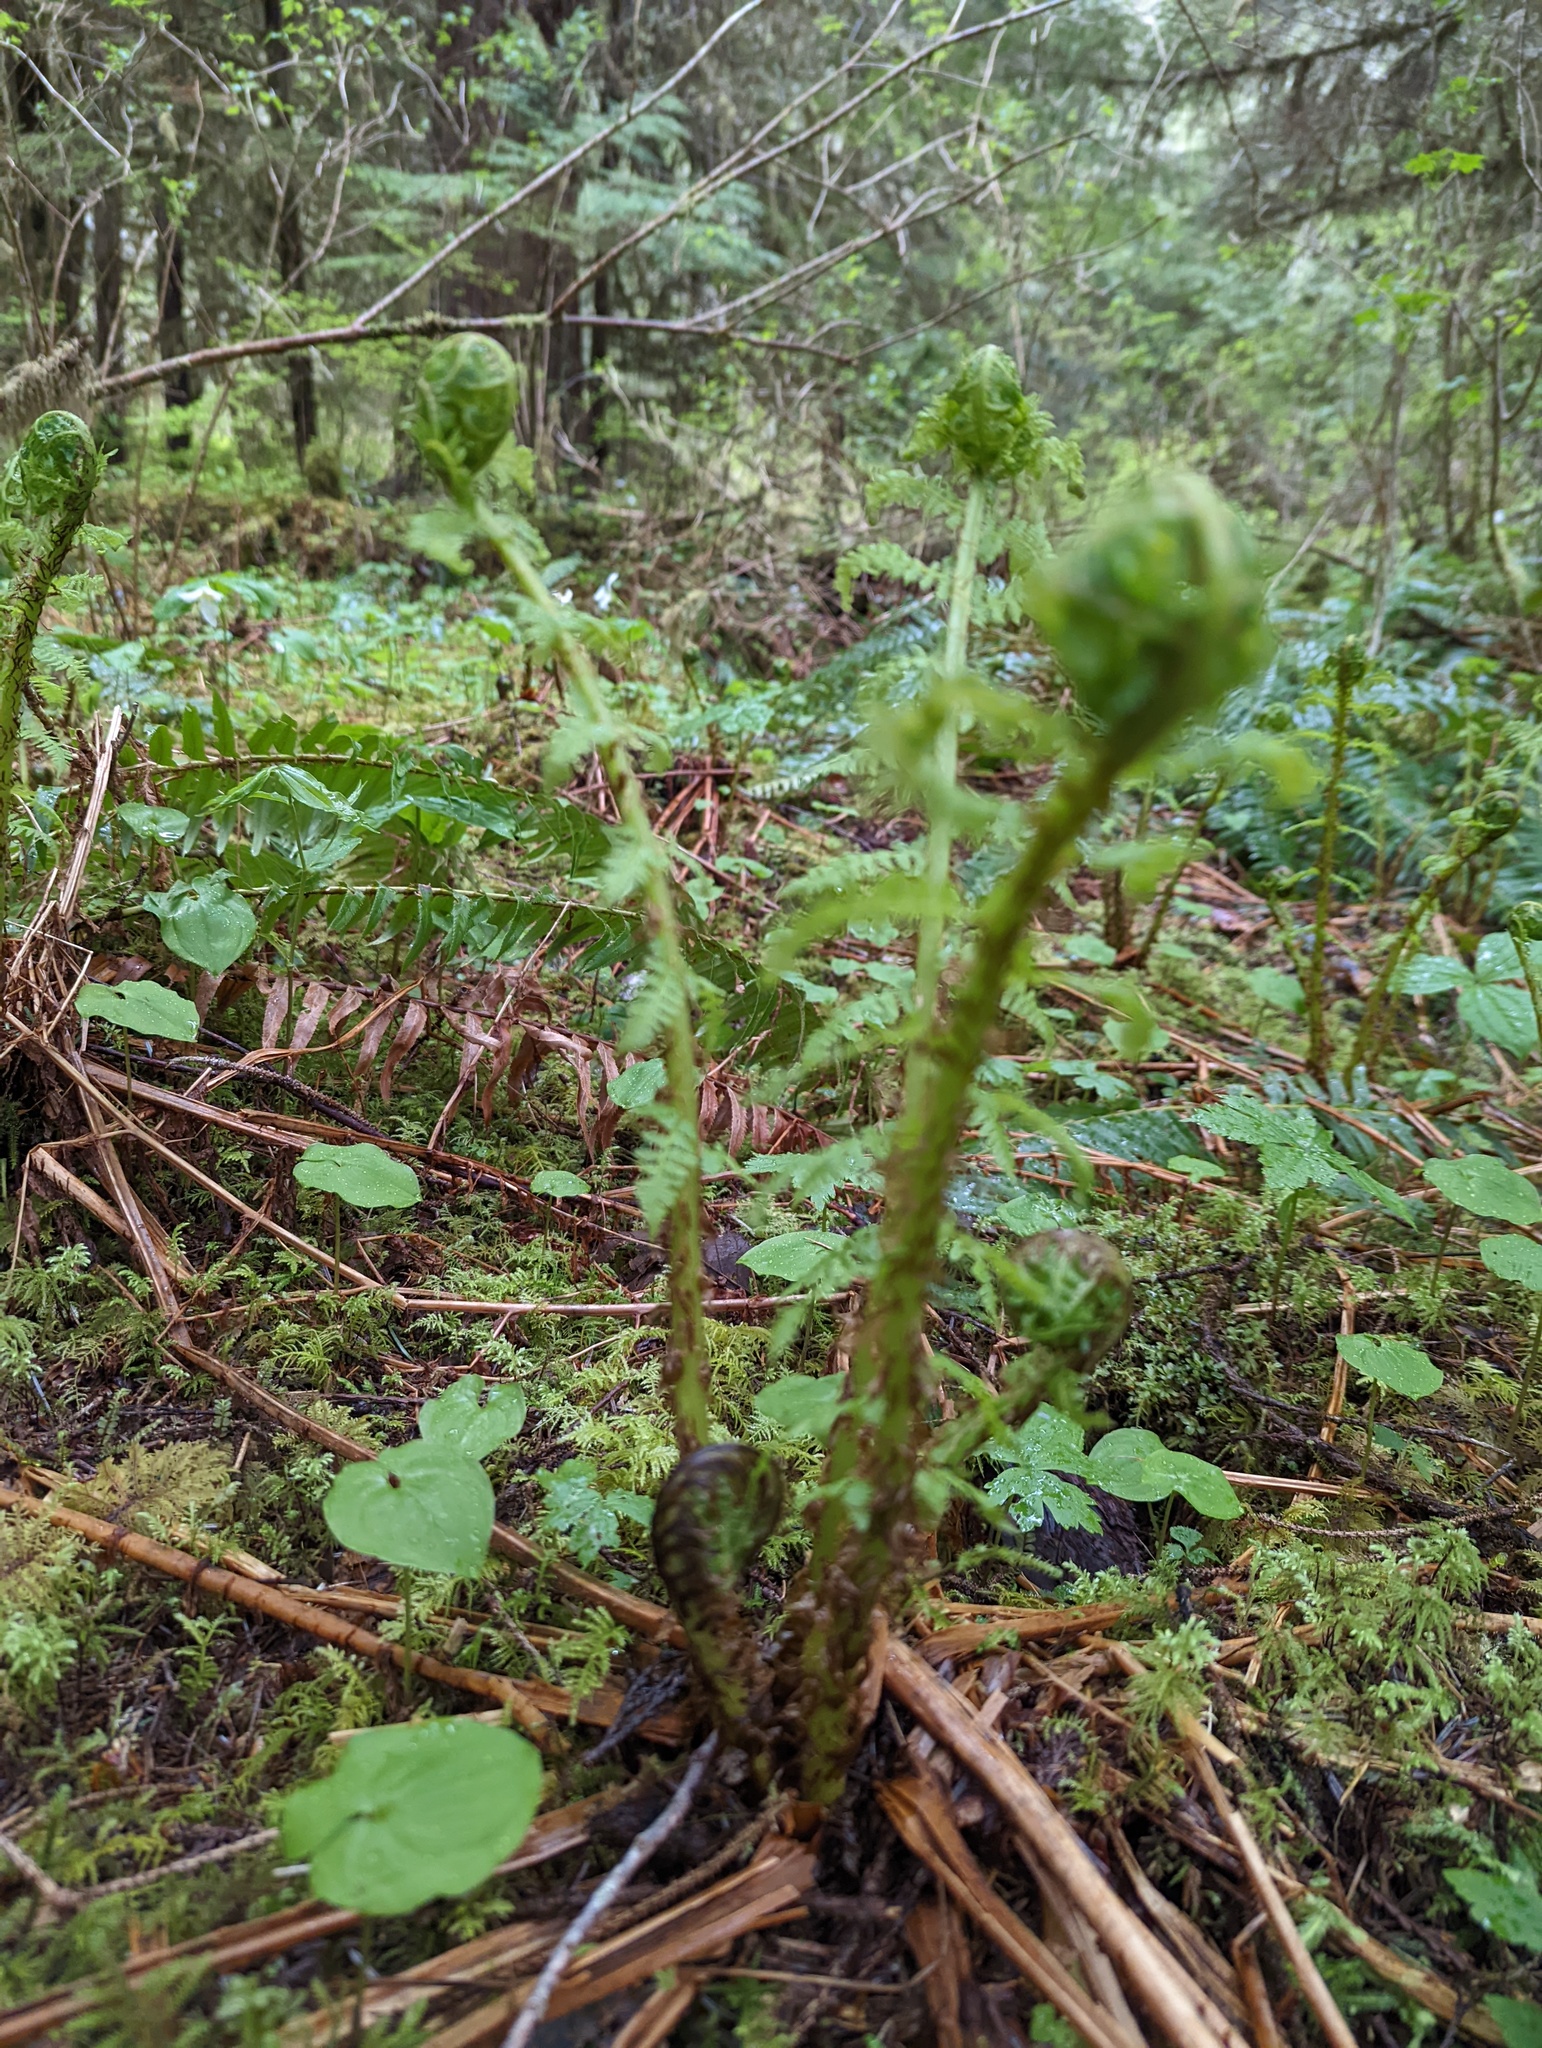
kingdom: Plantae
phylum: Tracheophyta
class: Polypodiopsida
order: Polypodiales
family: Athyriaceae
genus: Athyrium
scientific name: Athyrium filix-femina
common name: Lady fern
